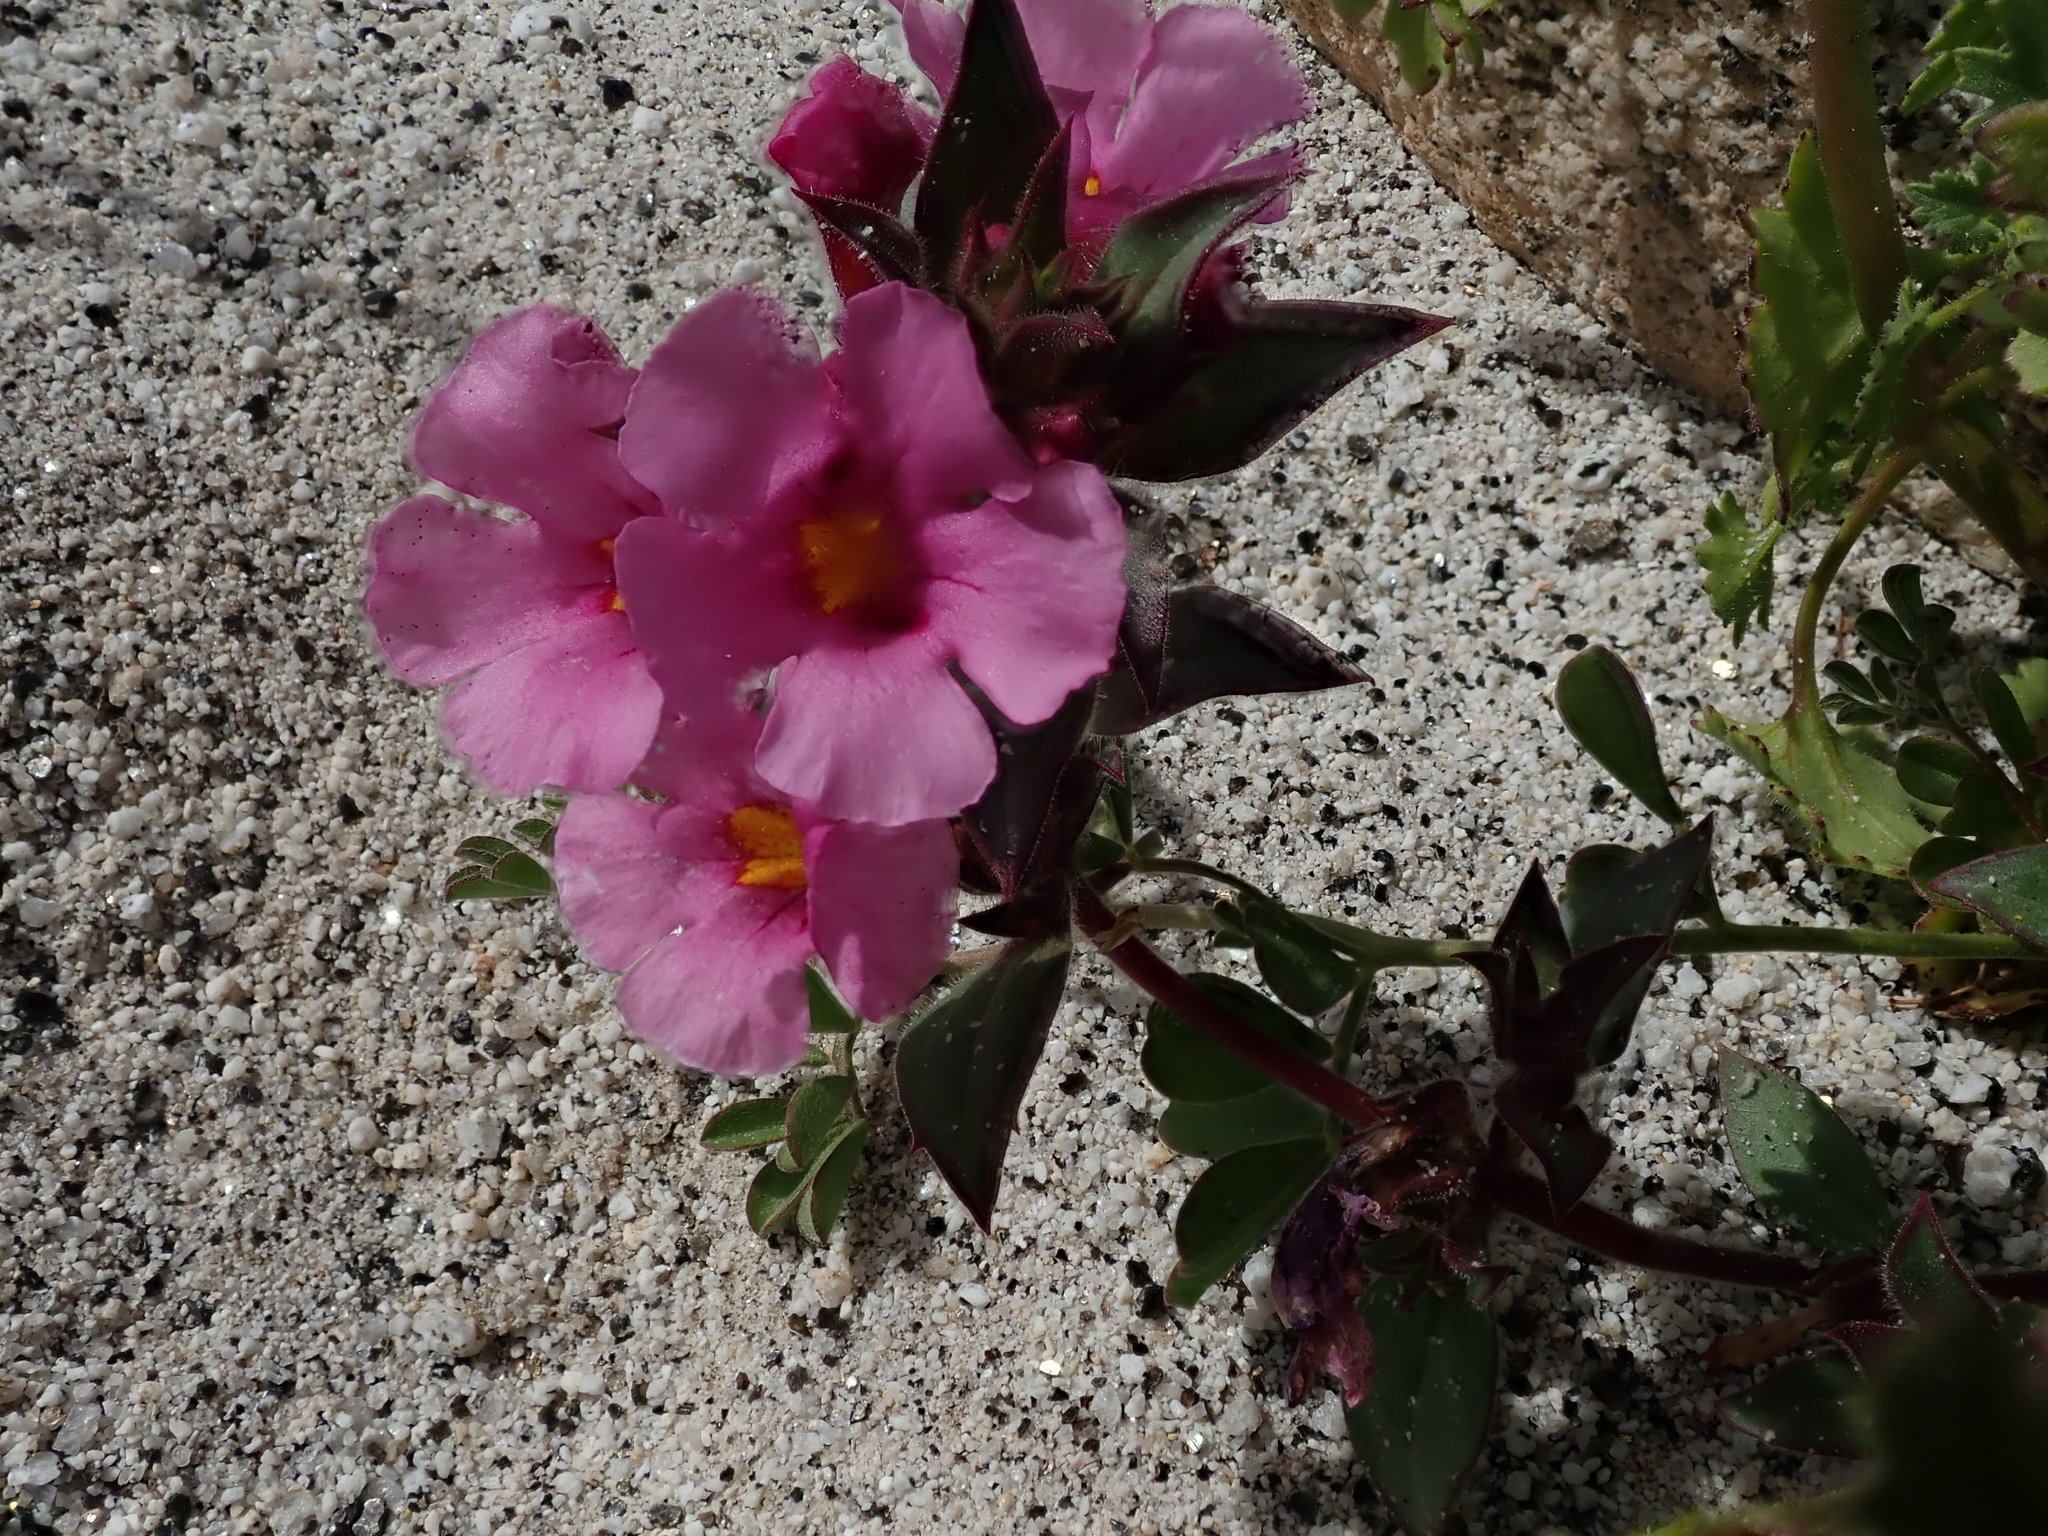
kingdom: Plantae
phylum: Tracheophyta
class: Magnoliopsida
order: Lamiales
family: Phrymaceae
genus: Diplacus
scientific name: Diplacus bigelovii
